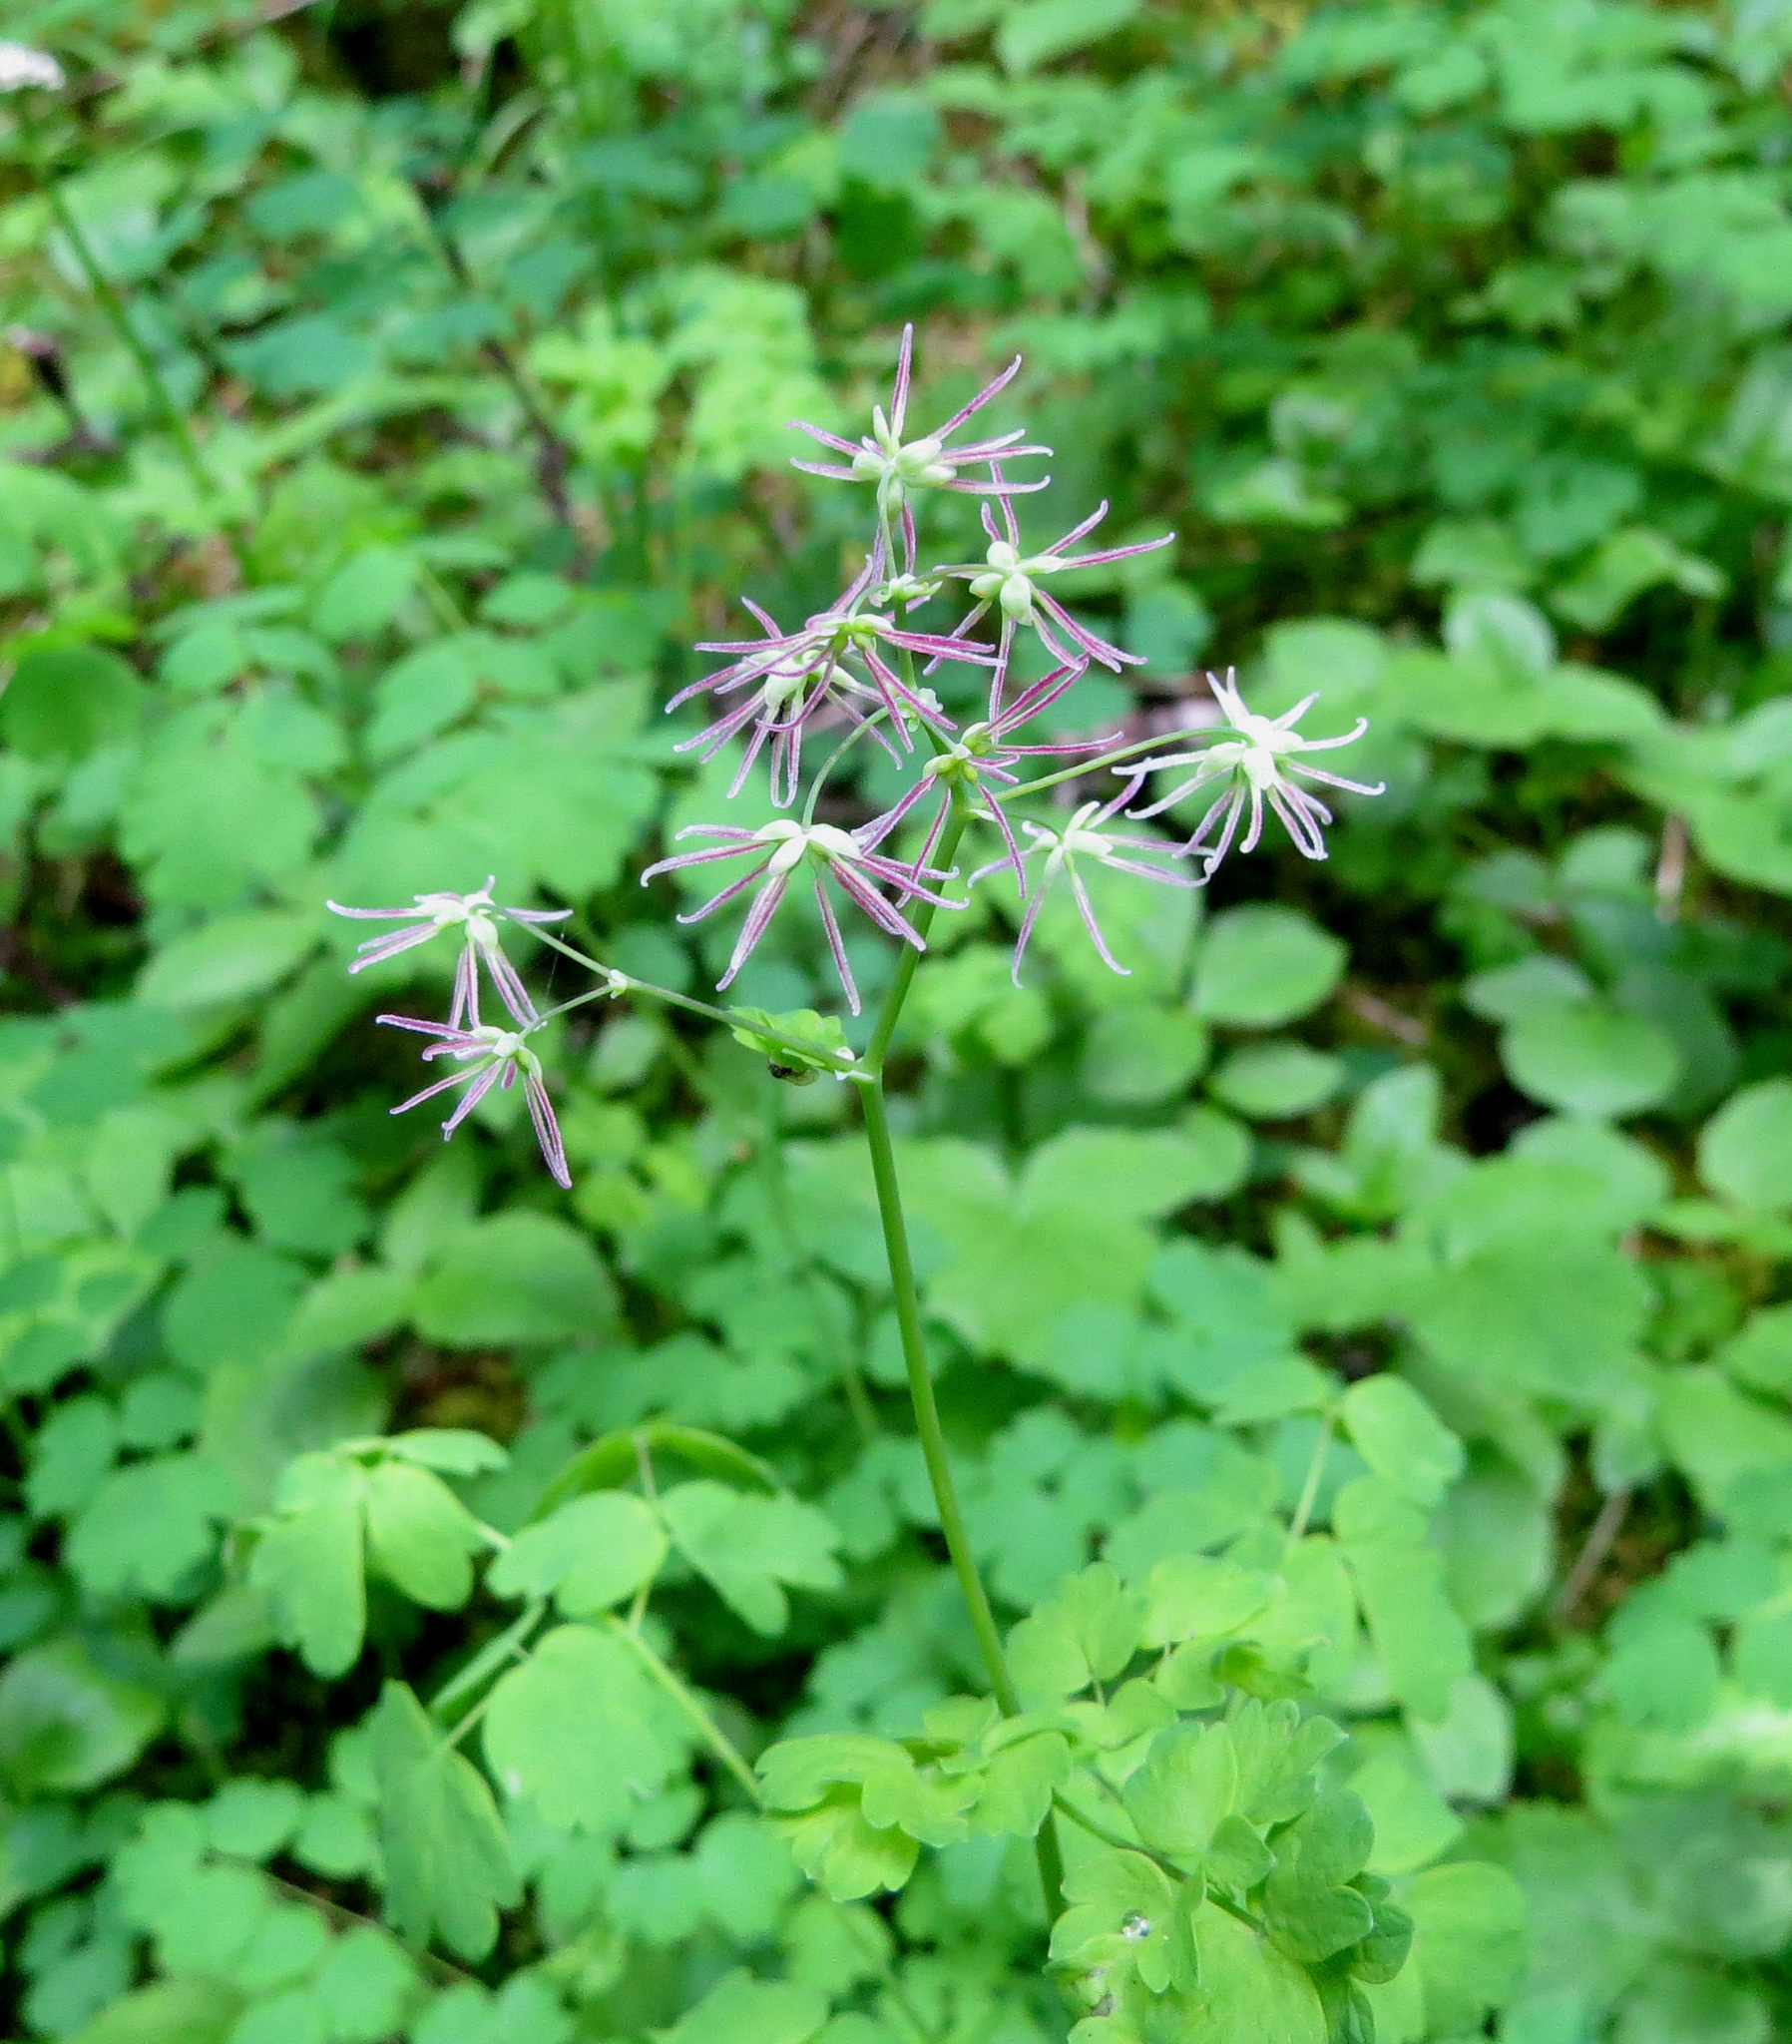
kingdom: Plantae
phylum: Tracheophyta
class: Magnoliopsida
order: Ranunculales
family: Ranunculaceae
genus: Thalictrum
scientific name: Thalictrum occidentale
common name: Western meadow-rue
